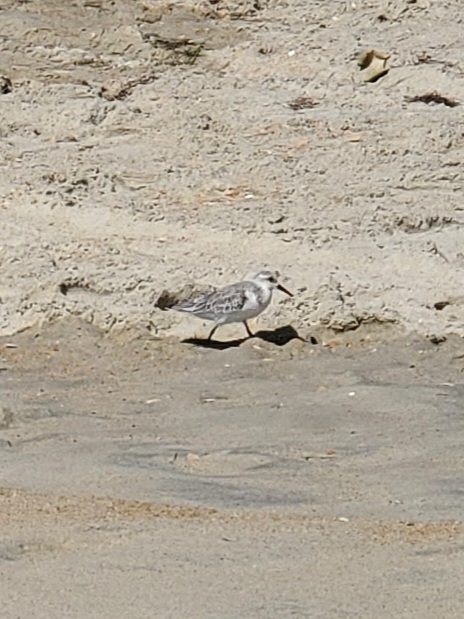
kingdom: Animalia
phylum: Chordata
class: Aves
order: Charadriiformes
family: Scolopacidae
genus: Calidris
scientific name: Calidris alba
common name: Sanderling
